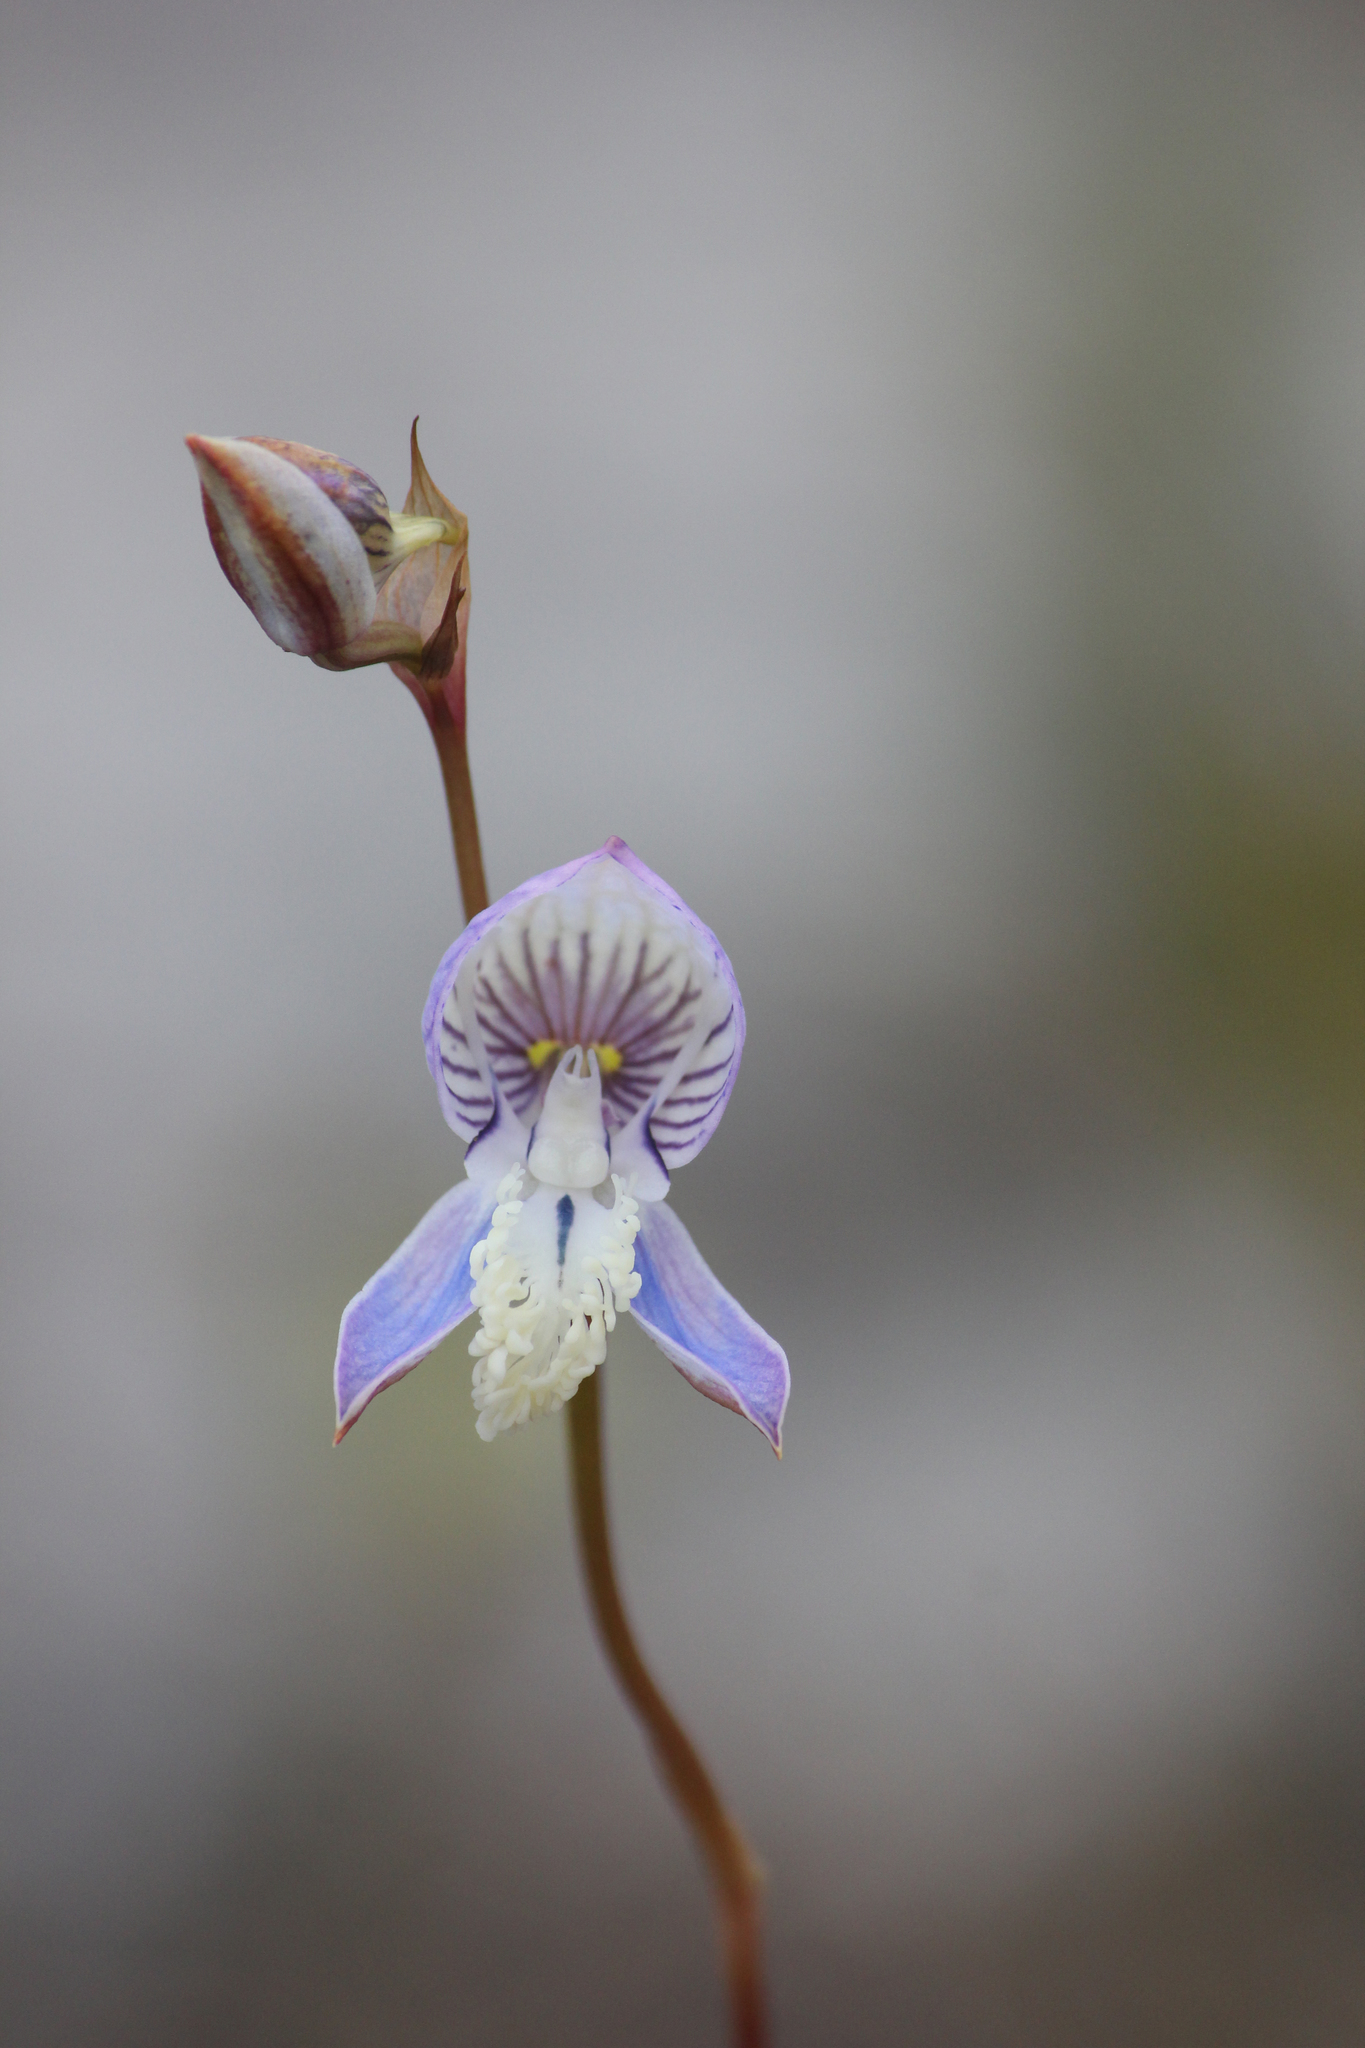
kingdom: Plantae
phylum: Tracheophyta
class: Liliopsida
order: Asparagales
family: Orchidaceae
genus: Disa
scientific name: Disa venusta
